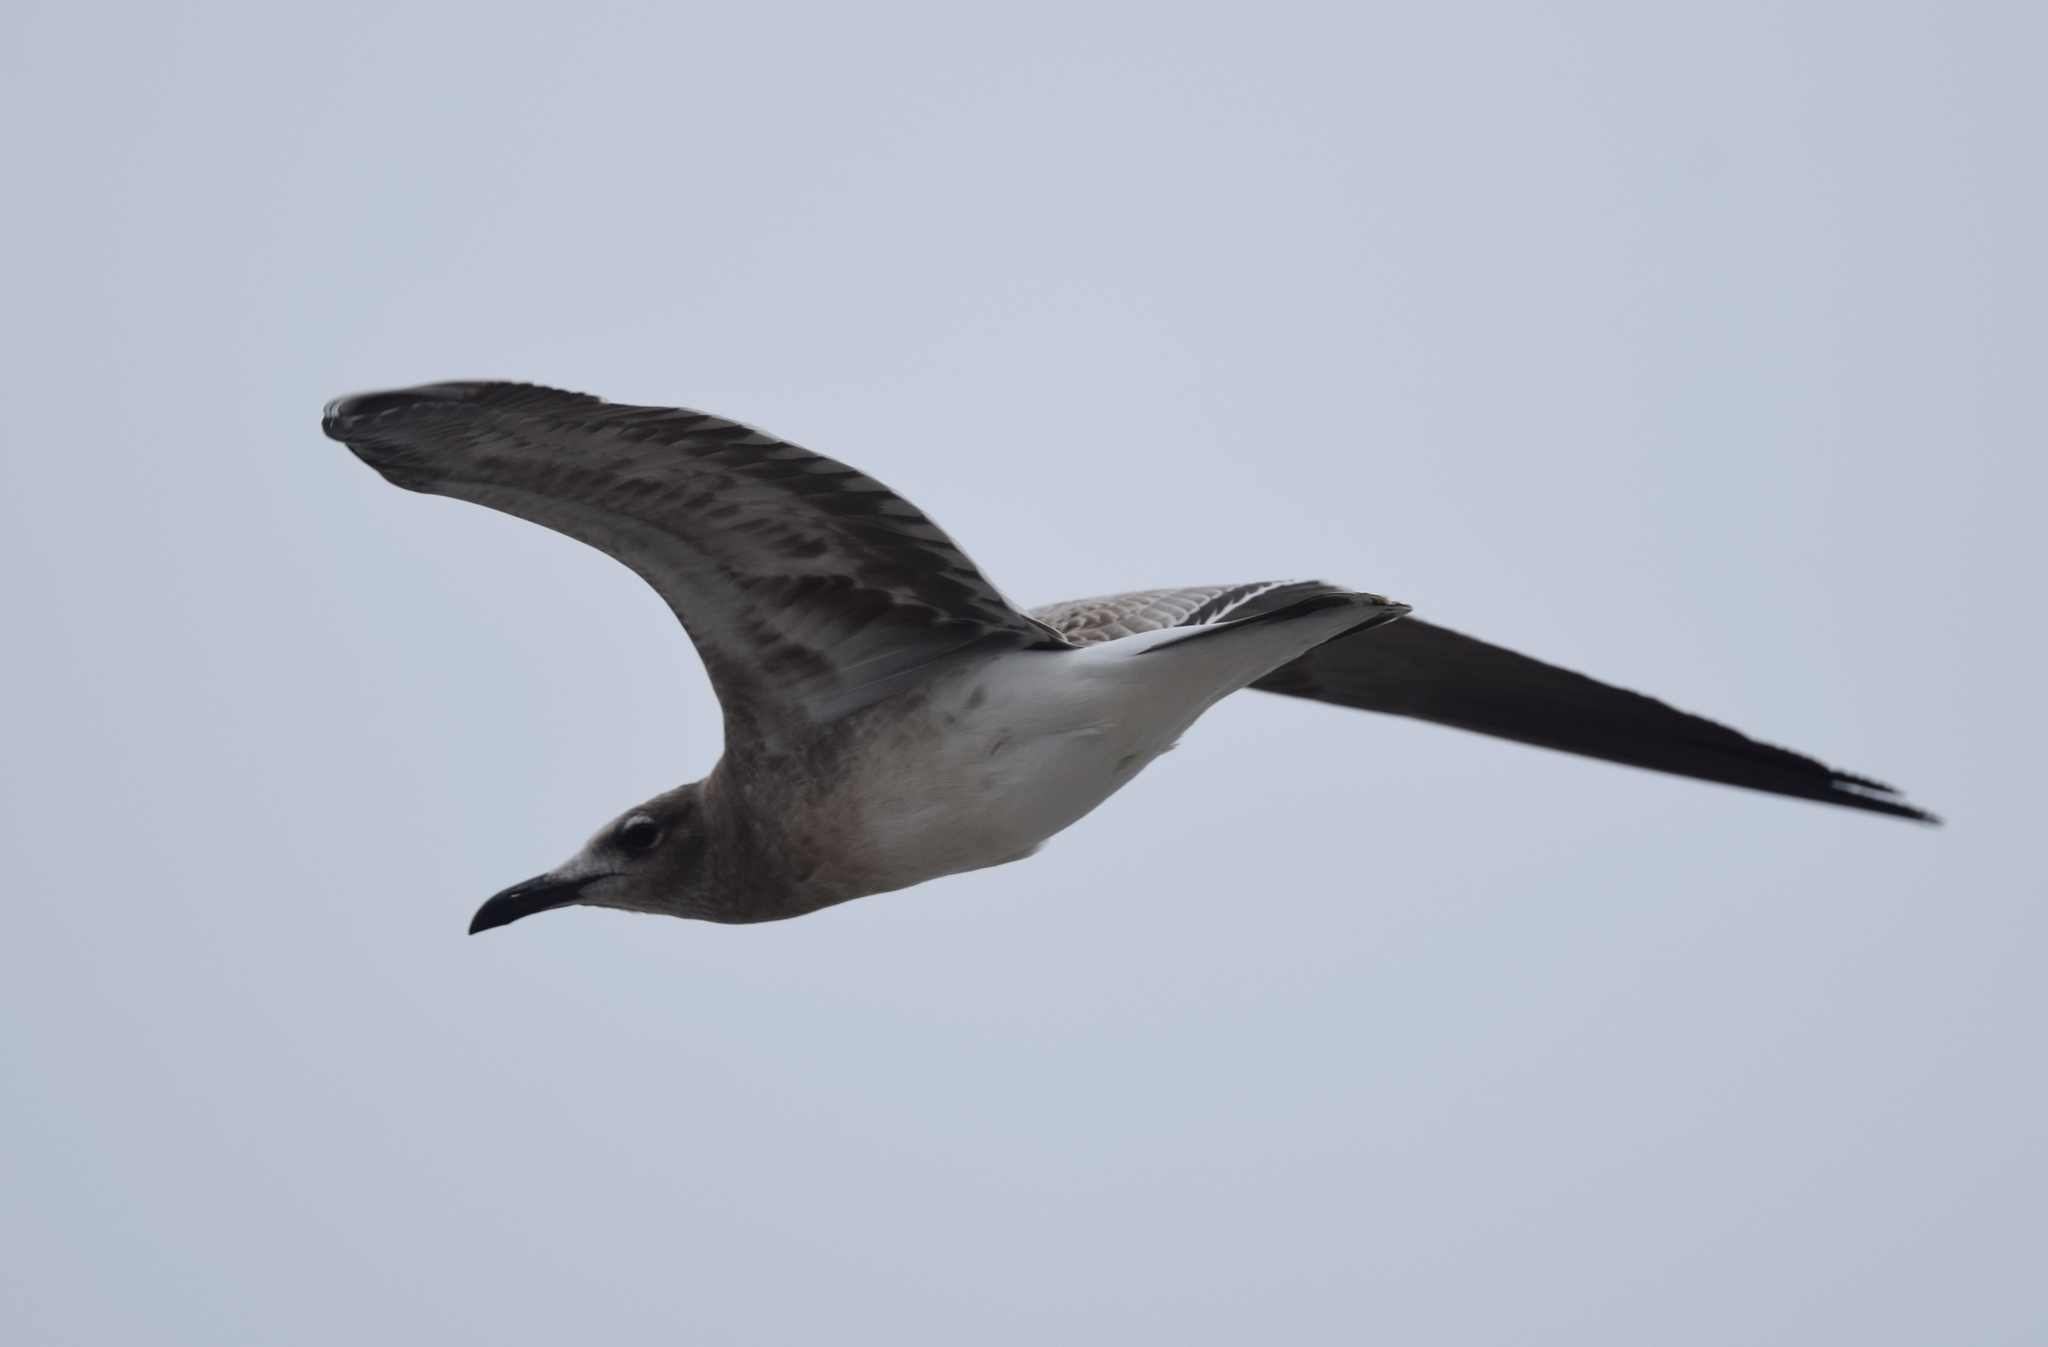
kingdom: Animalia
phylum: Chordata
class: Aves
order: Charadriiformes
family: Laridae
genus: Leucophaeus
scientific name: Leucophaeus atricilla
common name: Laughing gull
